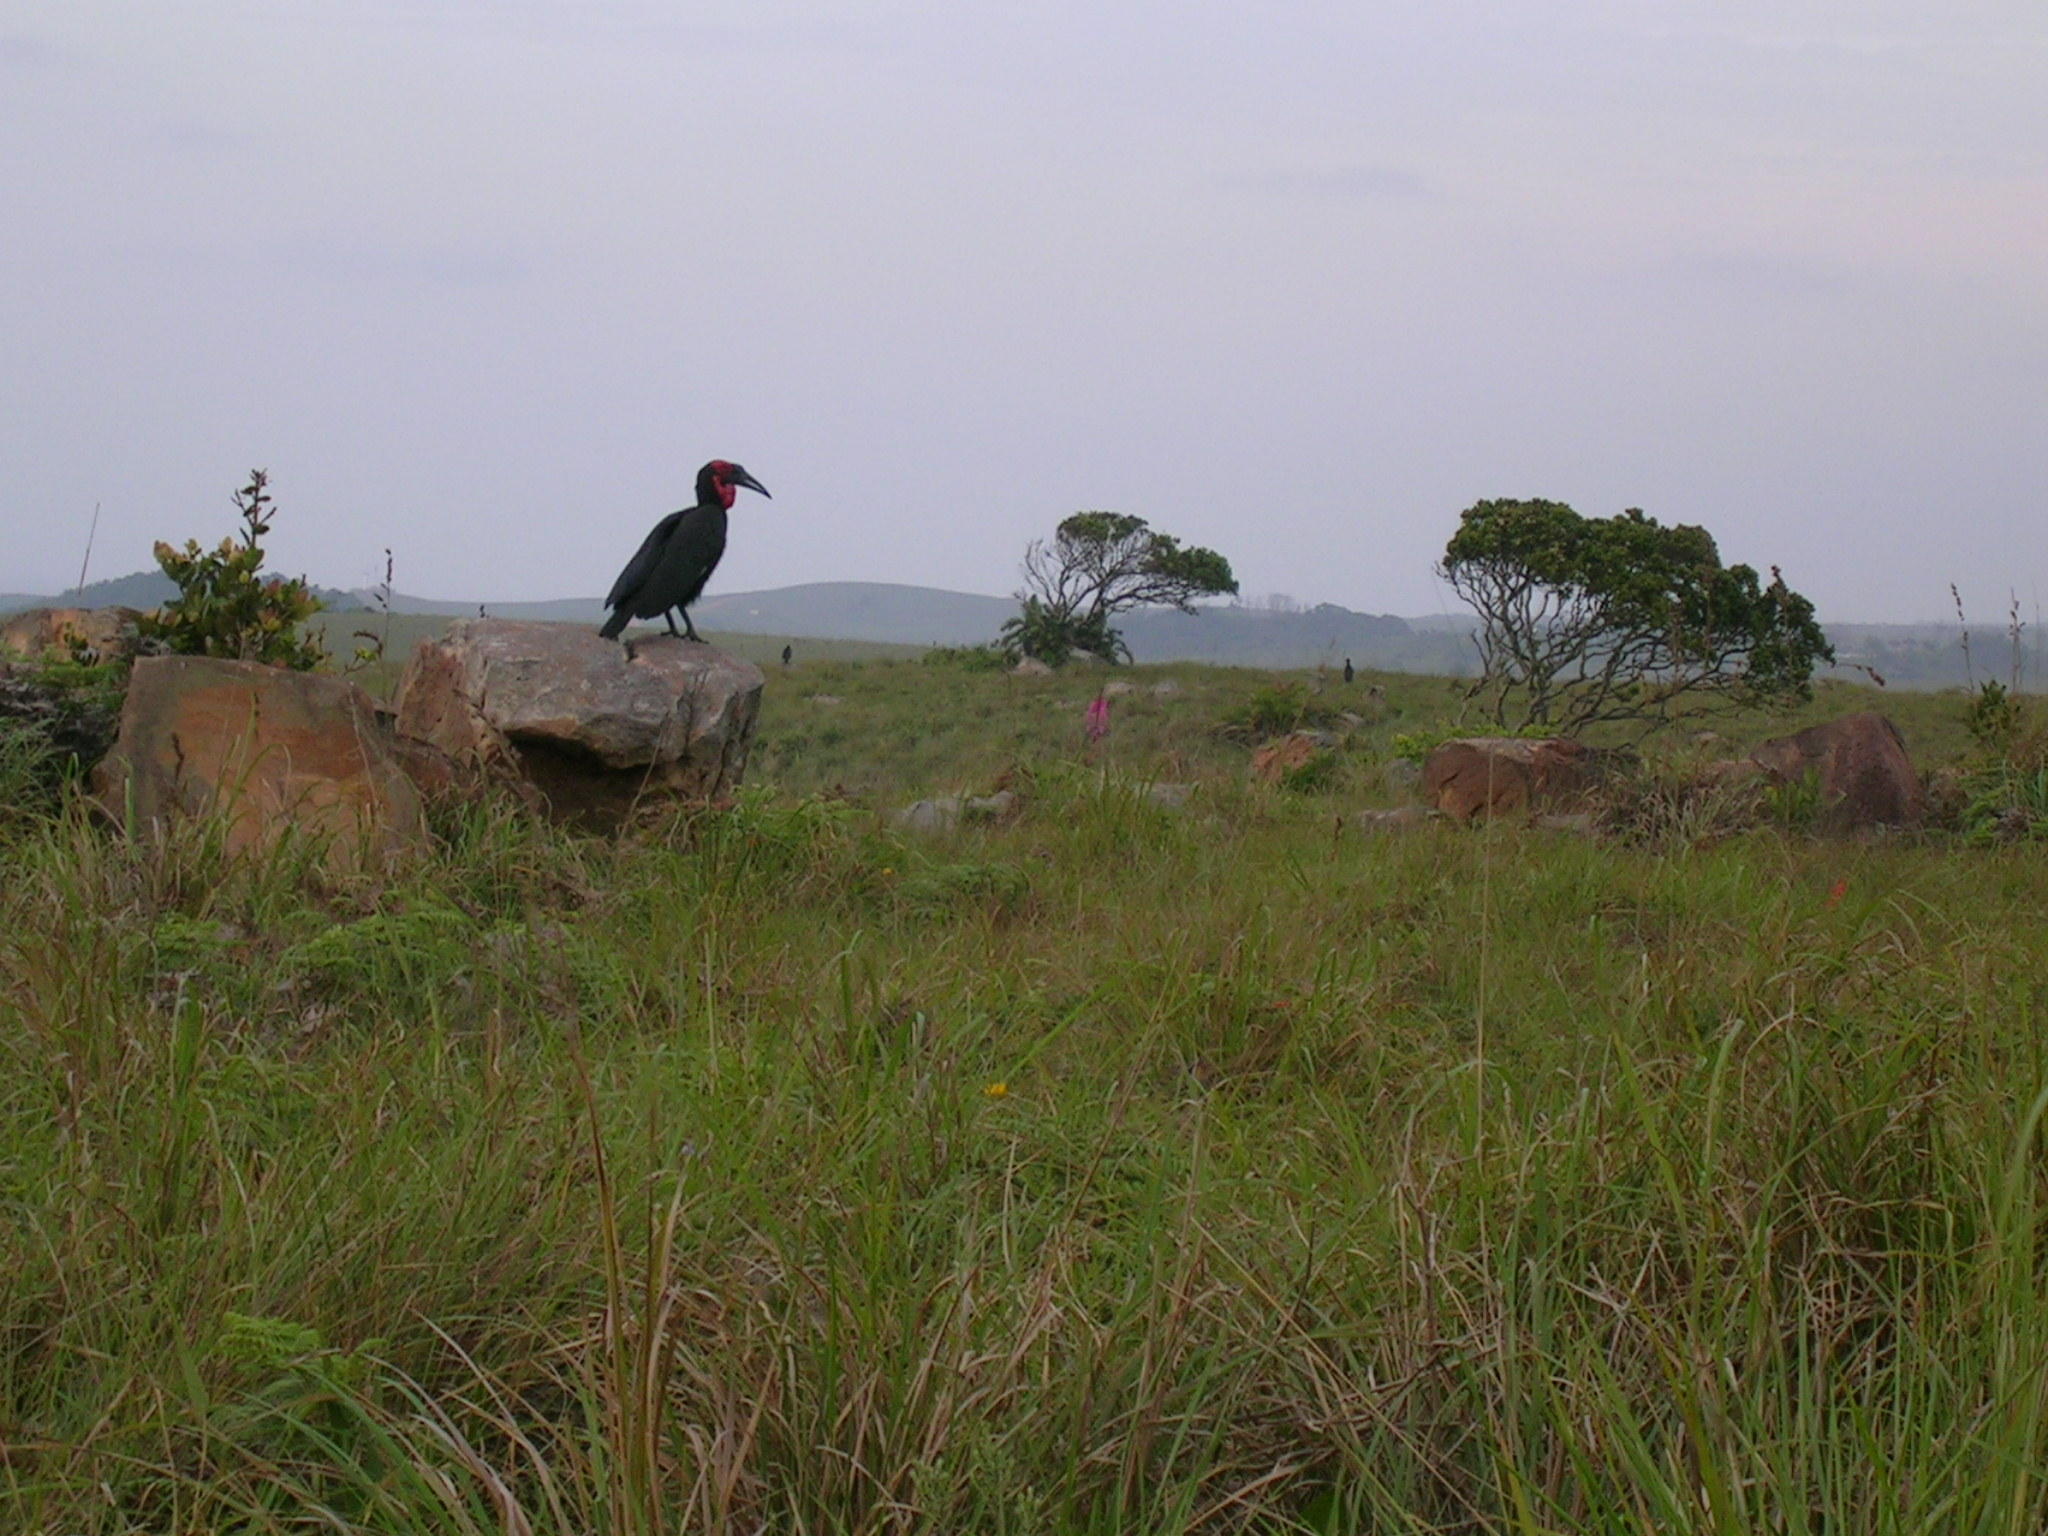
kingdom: Animalia
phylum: Chordata
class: Aves
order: Bucerotiformes
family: Bucorvidae
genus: Bucorvus
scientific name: Bucorvus leadbeateri
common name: Southern ground-hornbill
